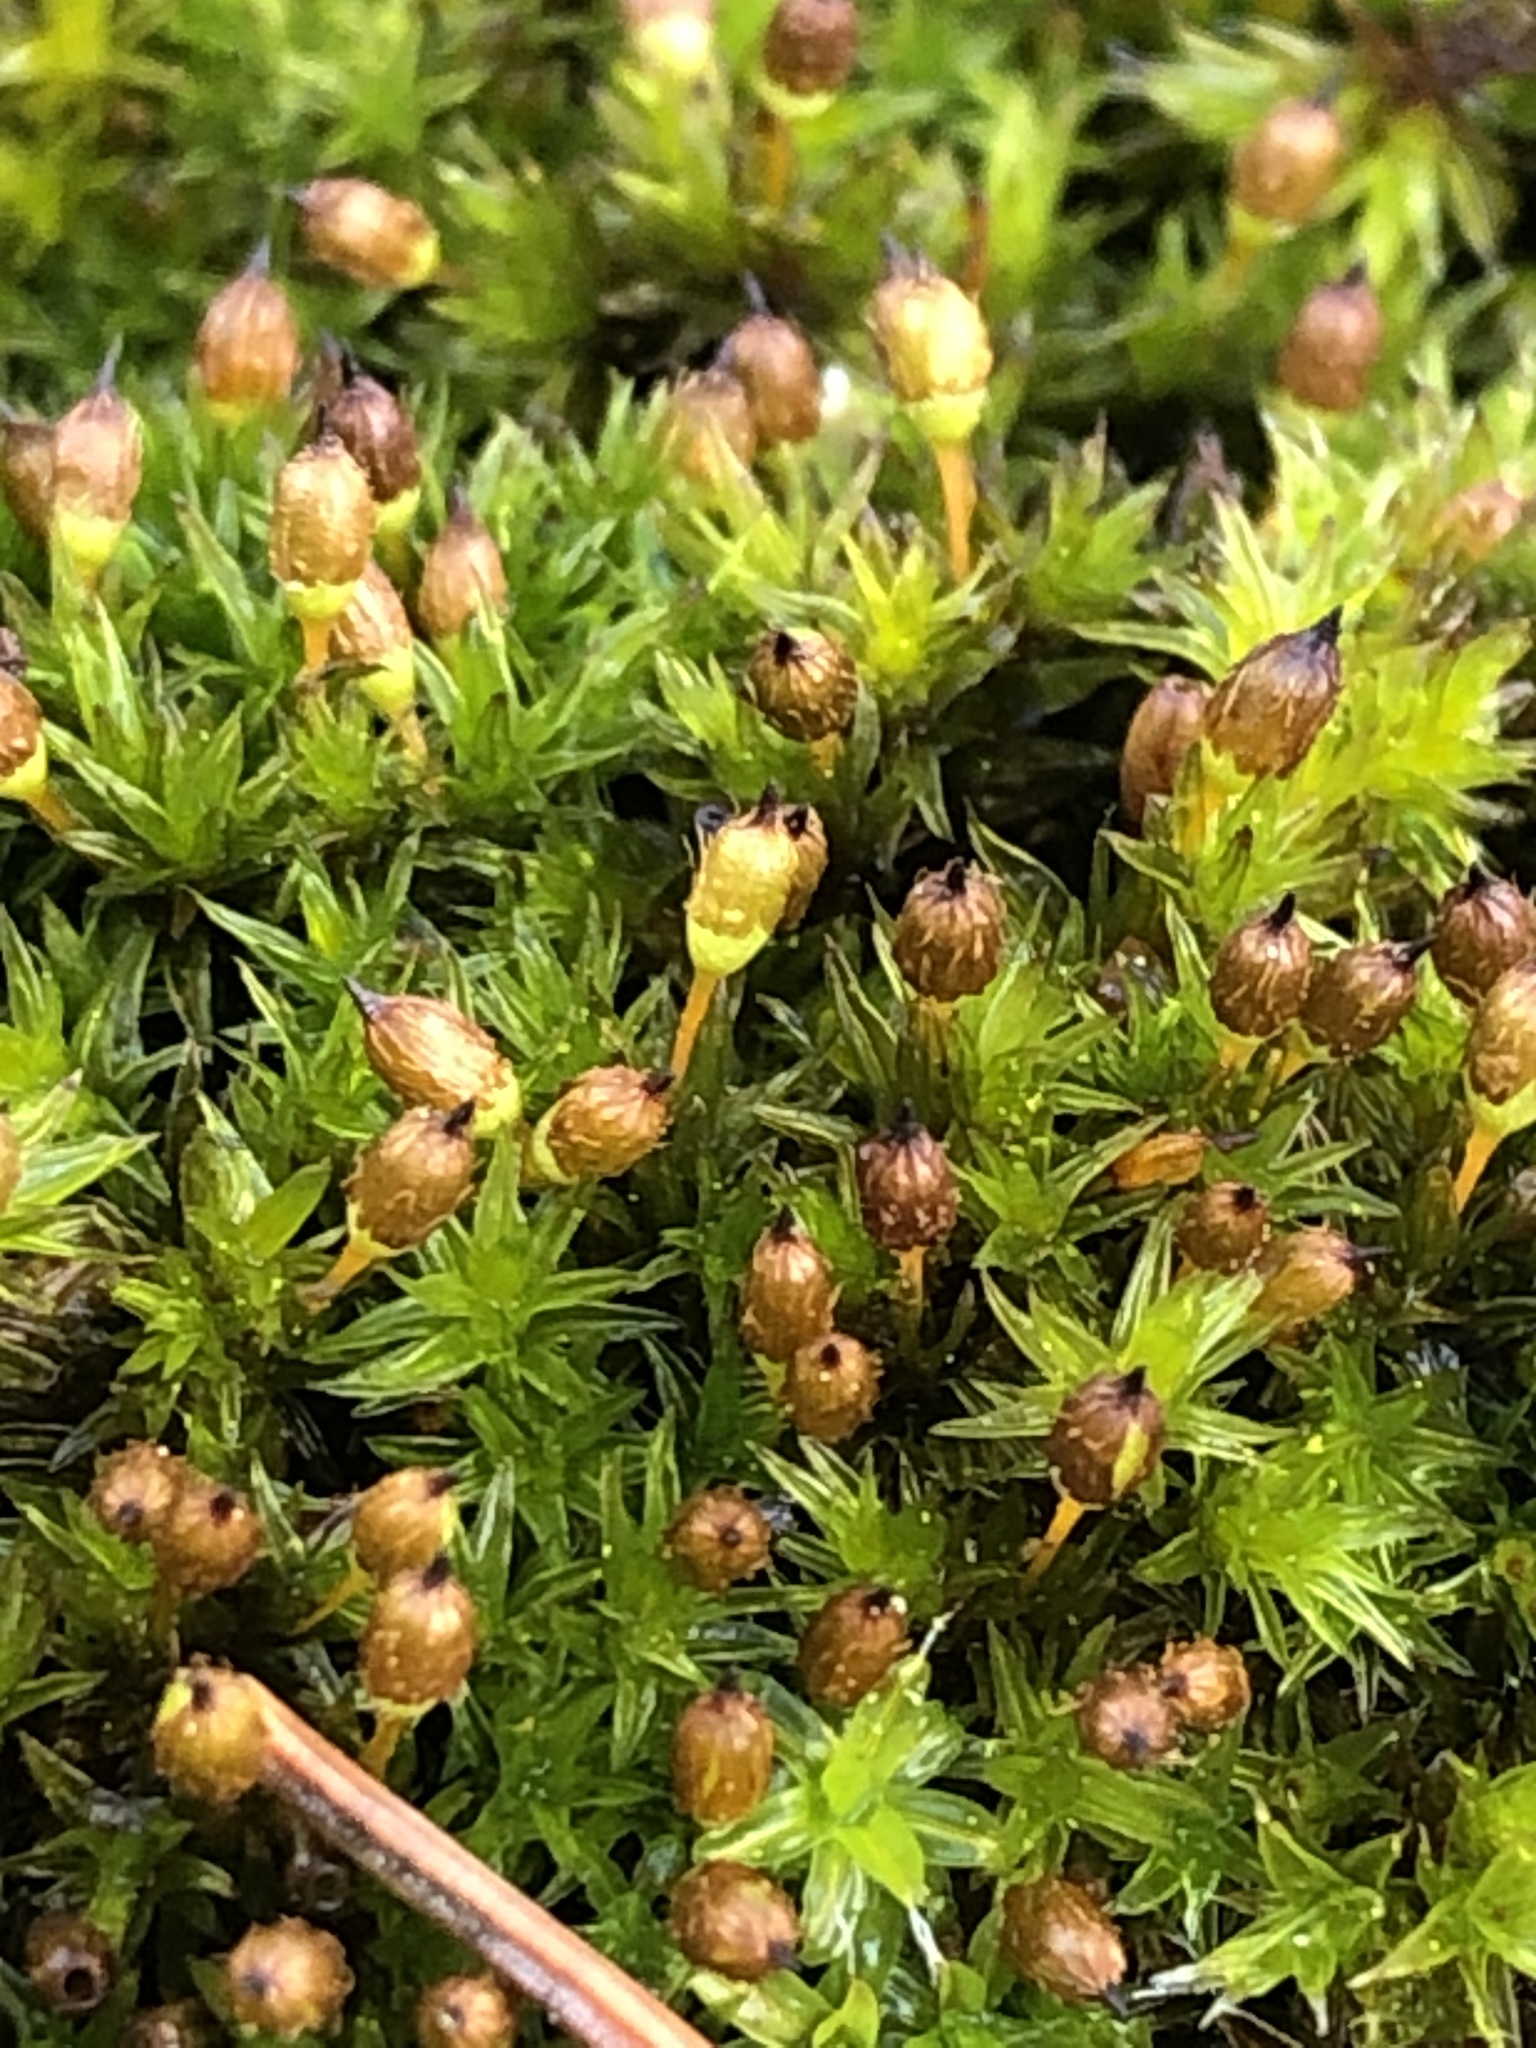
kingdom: Plantae
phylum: Bryophyta
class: Bryopsida
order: Orthotrichales
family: Orthotrichaceae
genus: Orthotrichum
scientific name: Orthotrichum anomalum
